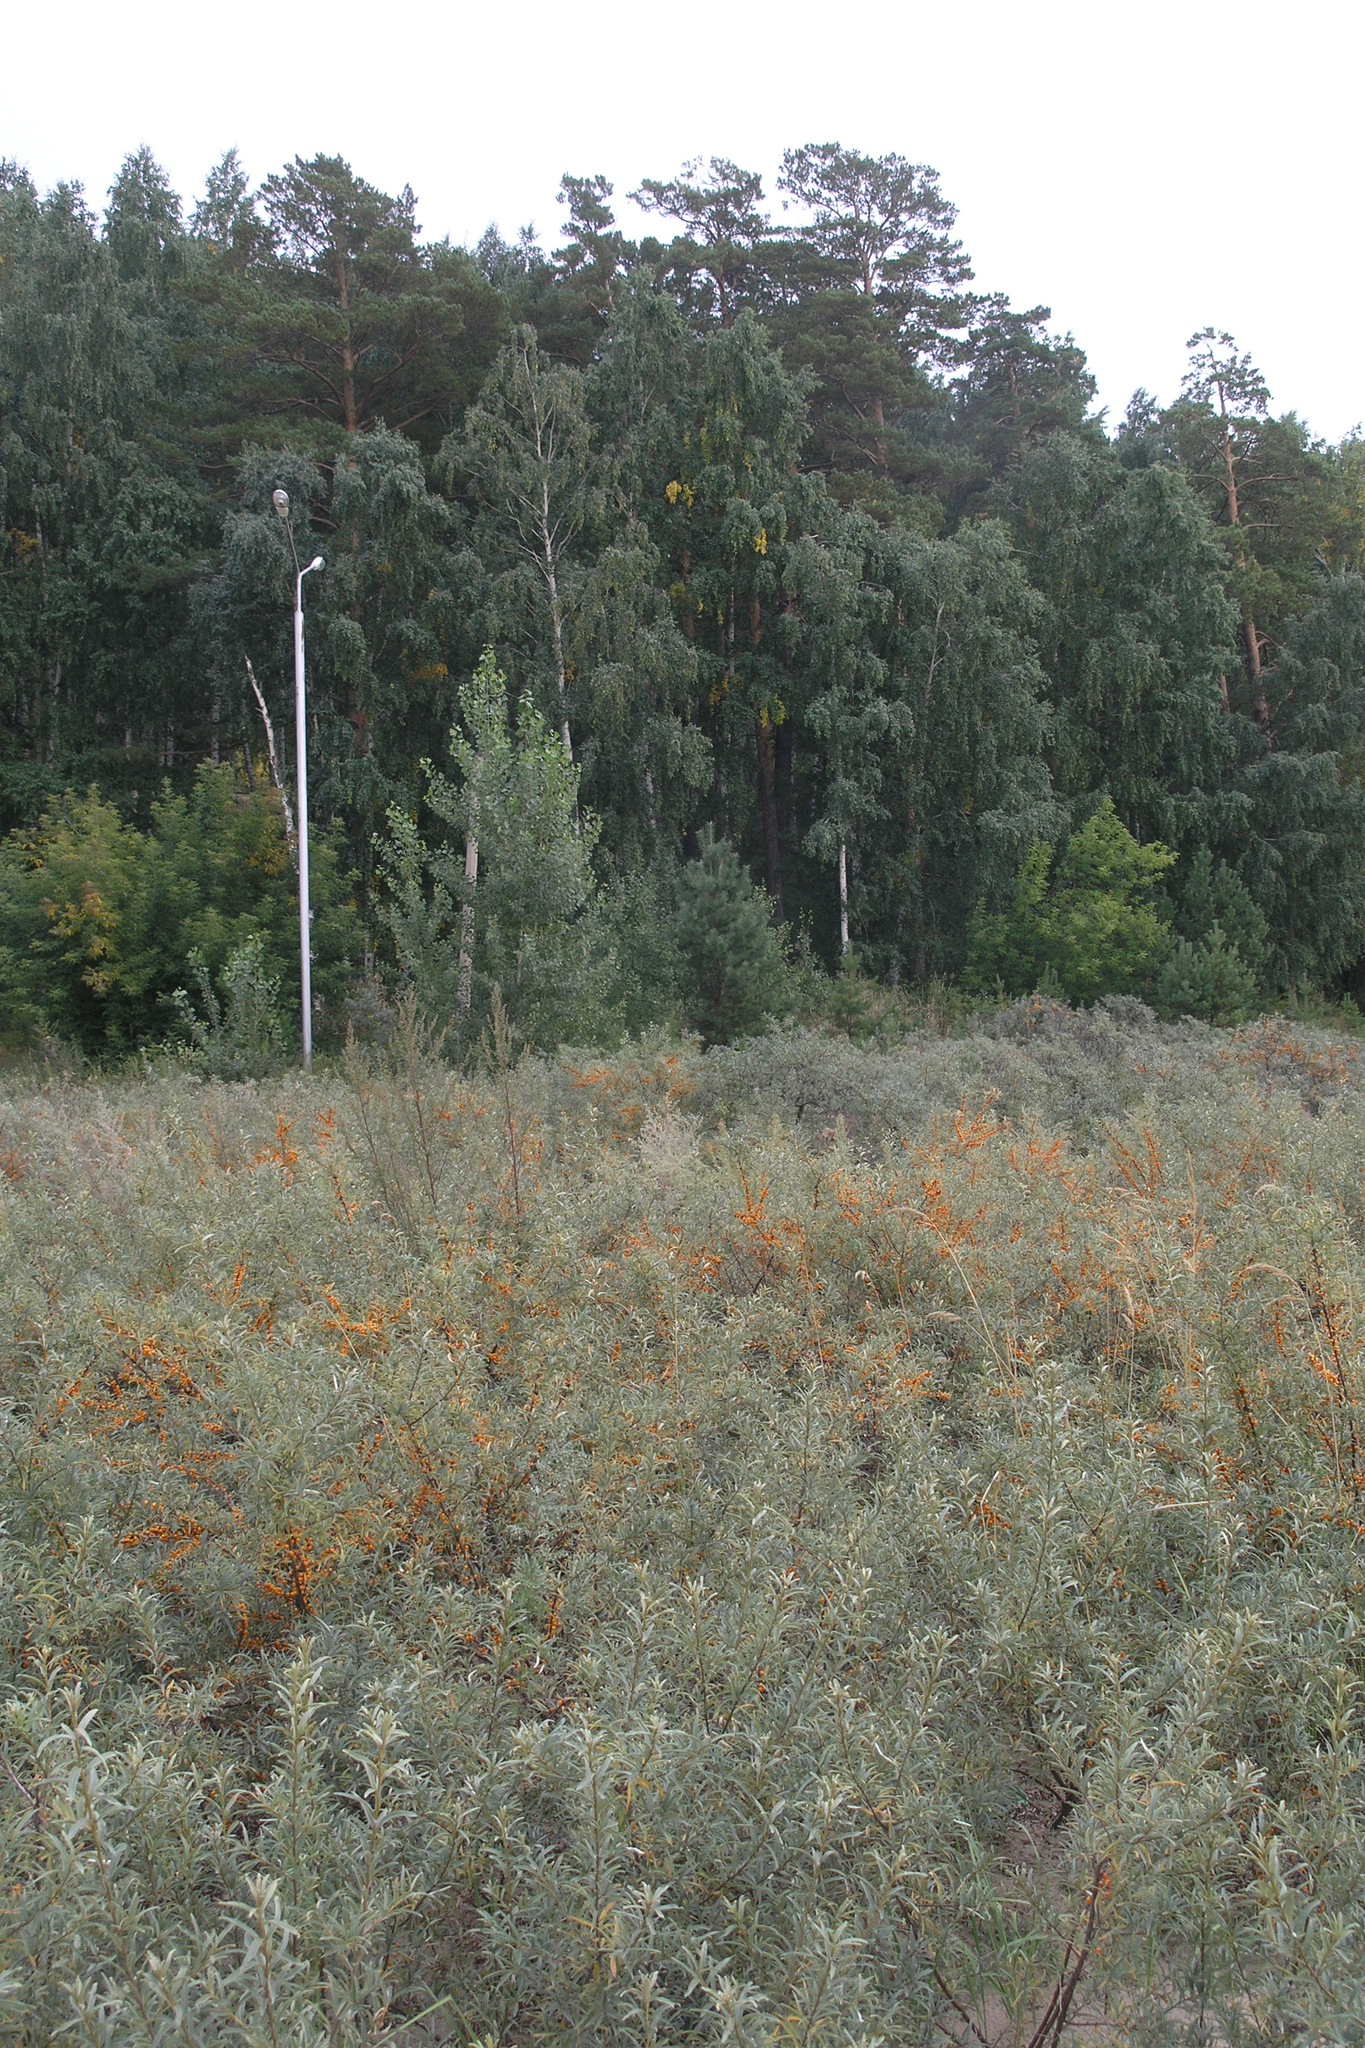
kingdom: Plantae
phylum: Tracheophyta
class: Magnoliopsida
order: Rosales
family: Elaeagnaceae
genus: Hippophae
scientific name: Hippophae rhamnoides
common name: Sea-buckthorn
